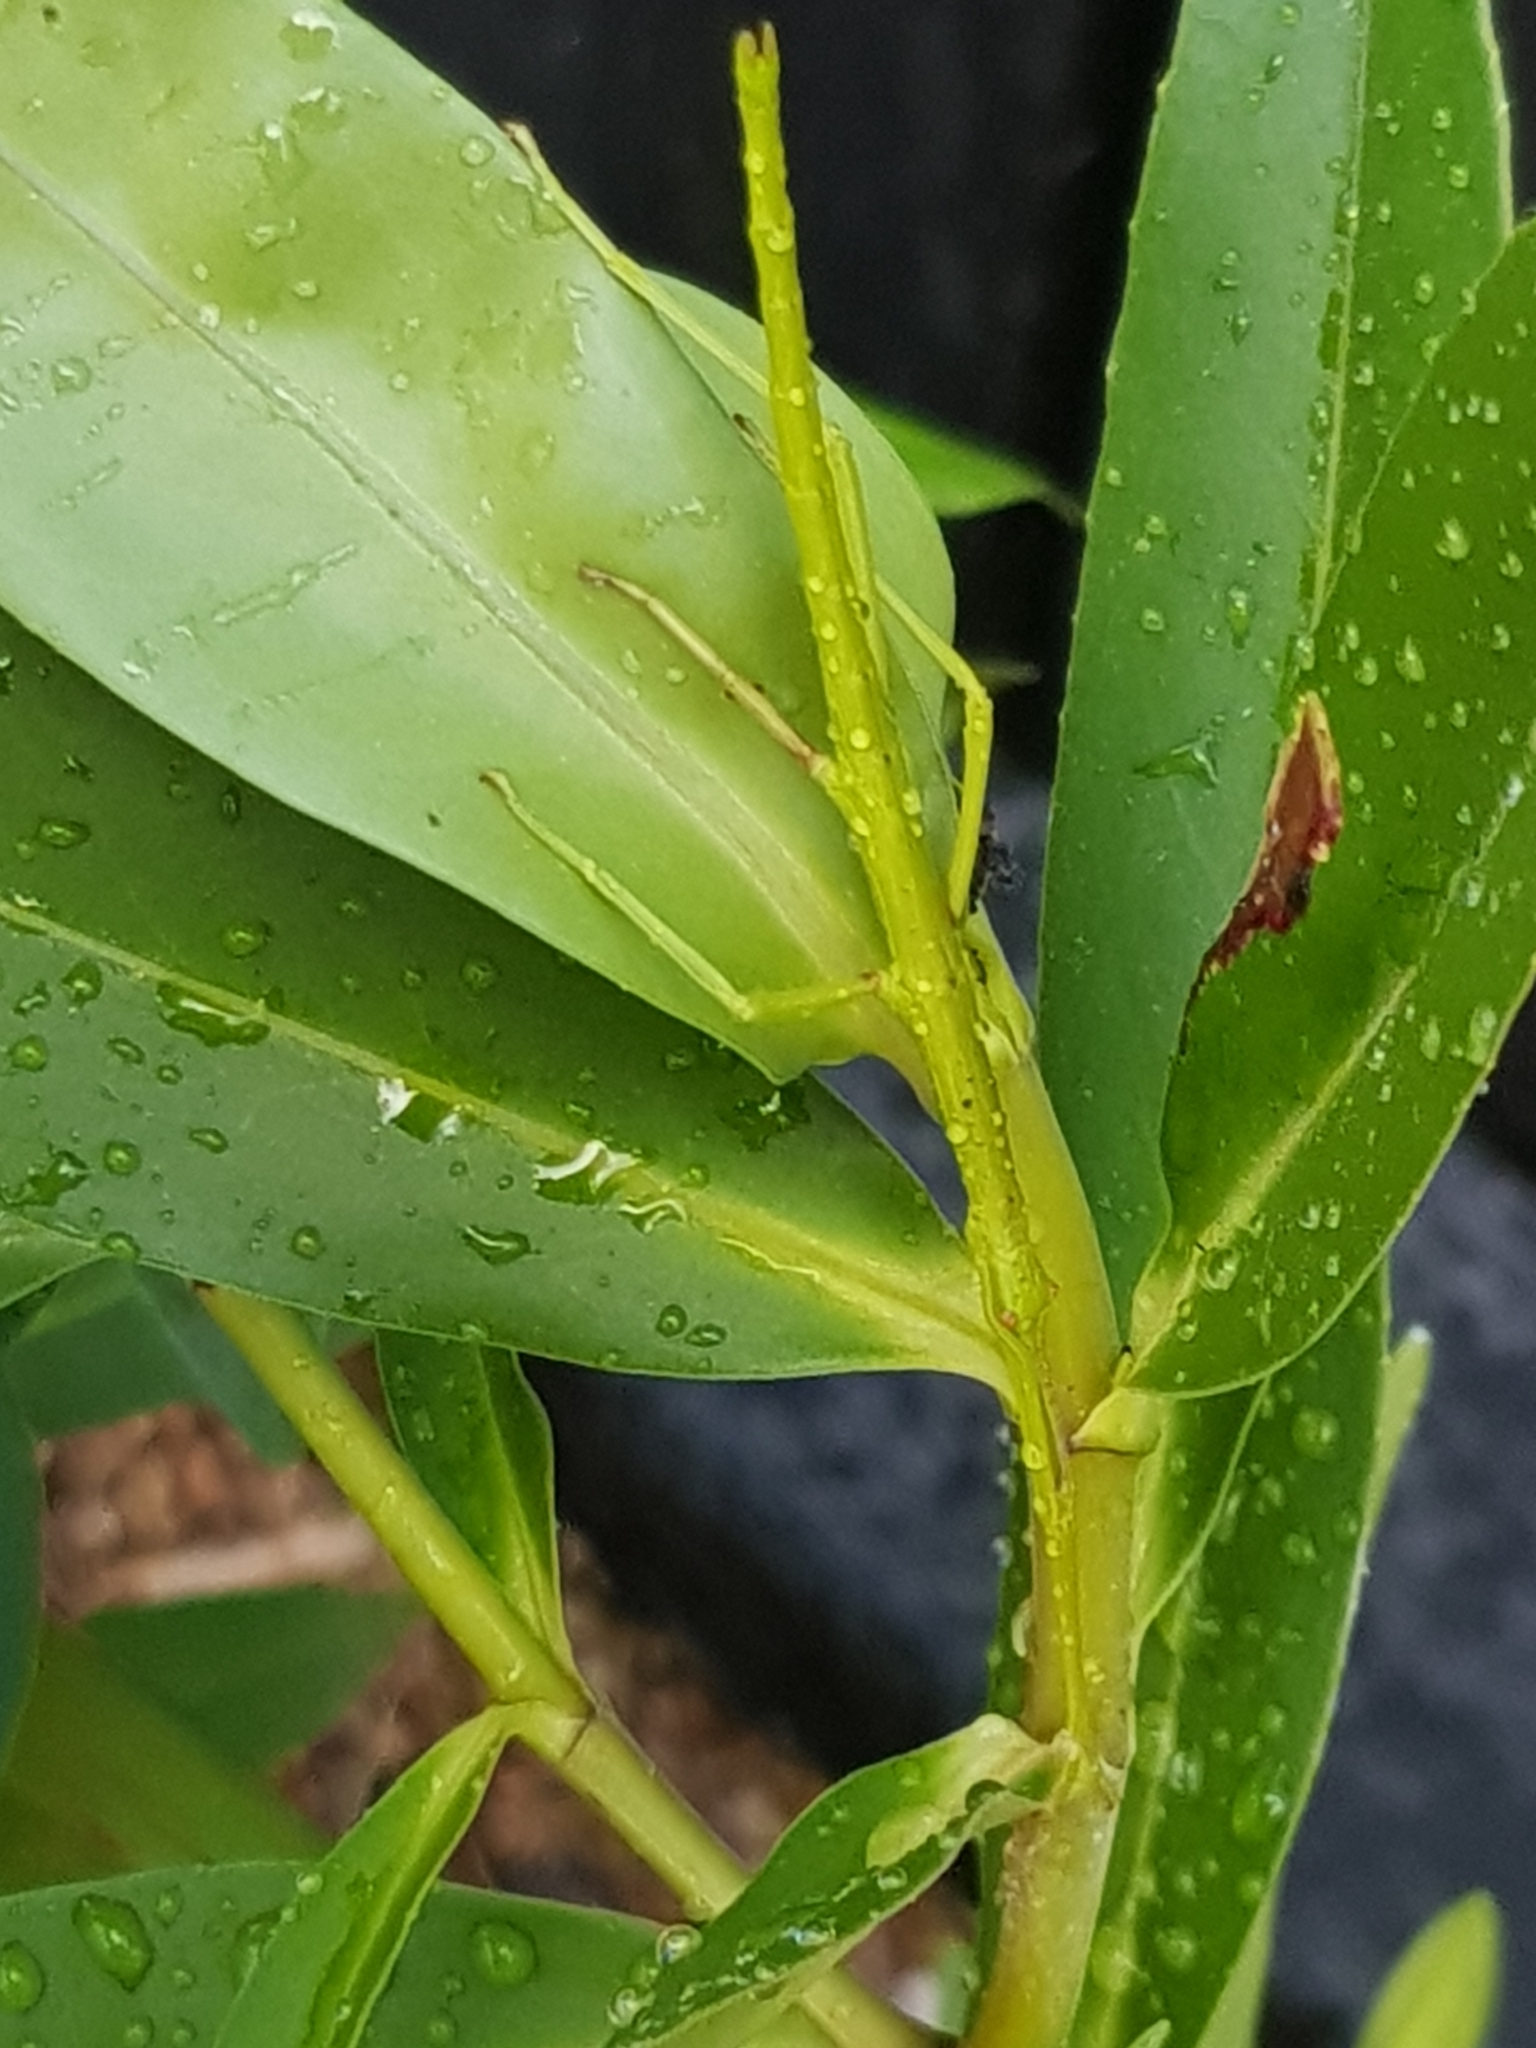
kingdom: Animalia
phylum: Arthropoda
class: Insecta
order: Phasmida
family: Phasmatidae
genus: Clitarchus
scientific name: Clitarchus hookeri
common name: Smooth stick insect
